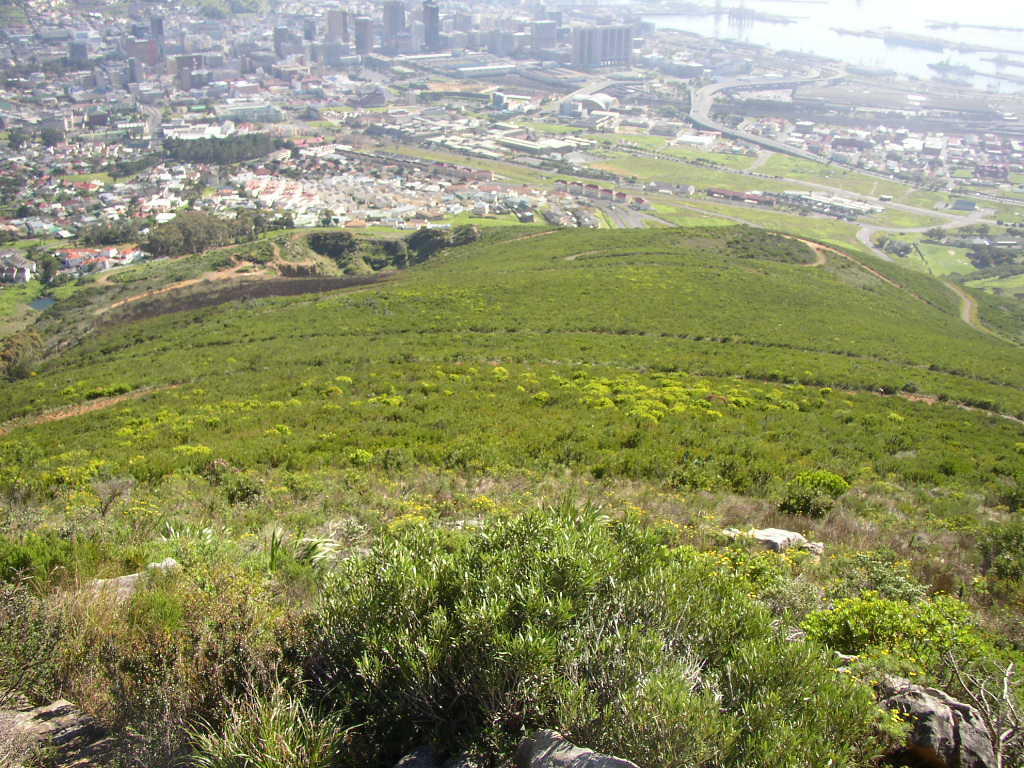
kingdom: Plantae
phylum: Tracheophyta
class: Magnoliopsida
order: Proteales
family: Proteaceae
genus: Protea
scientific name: Protea
